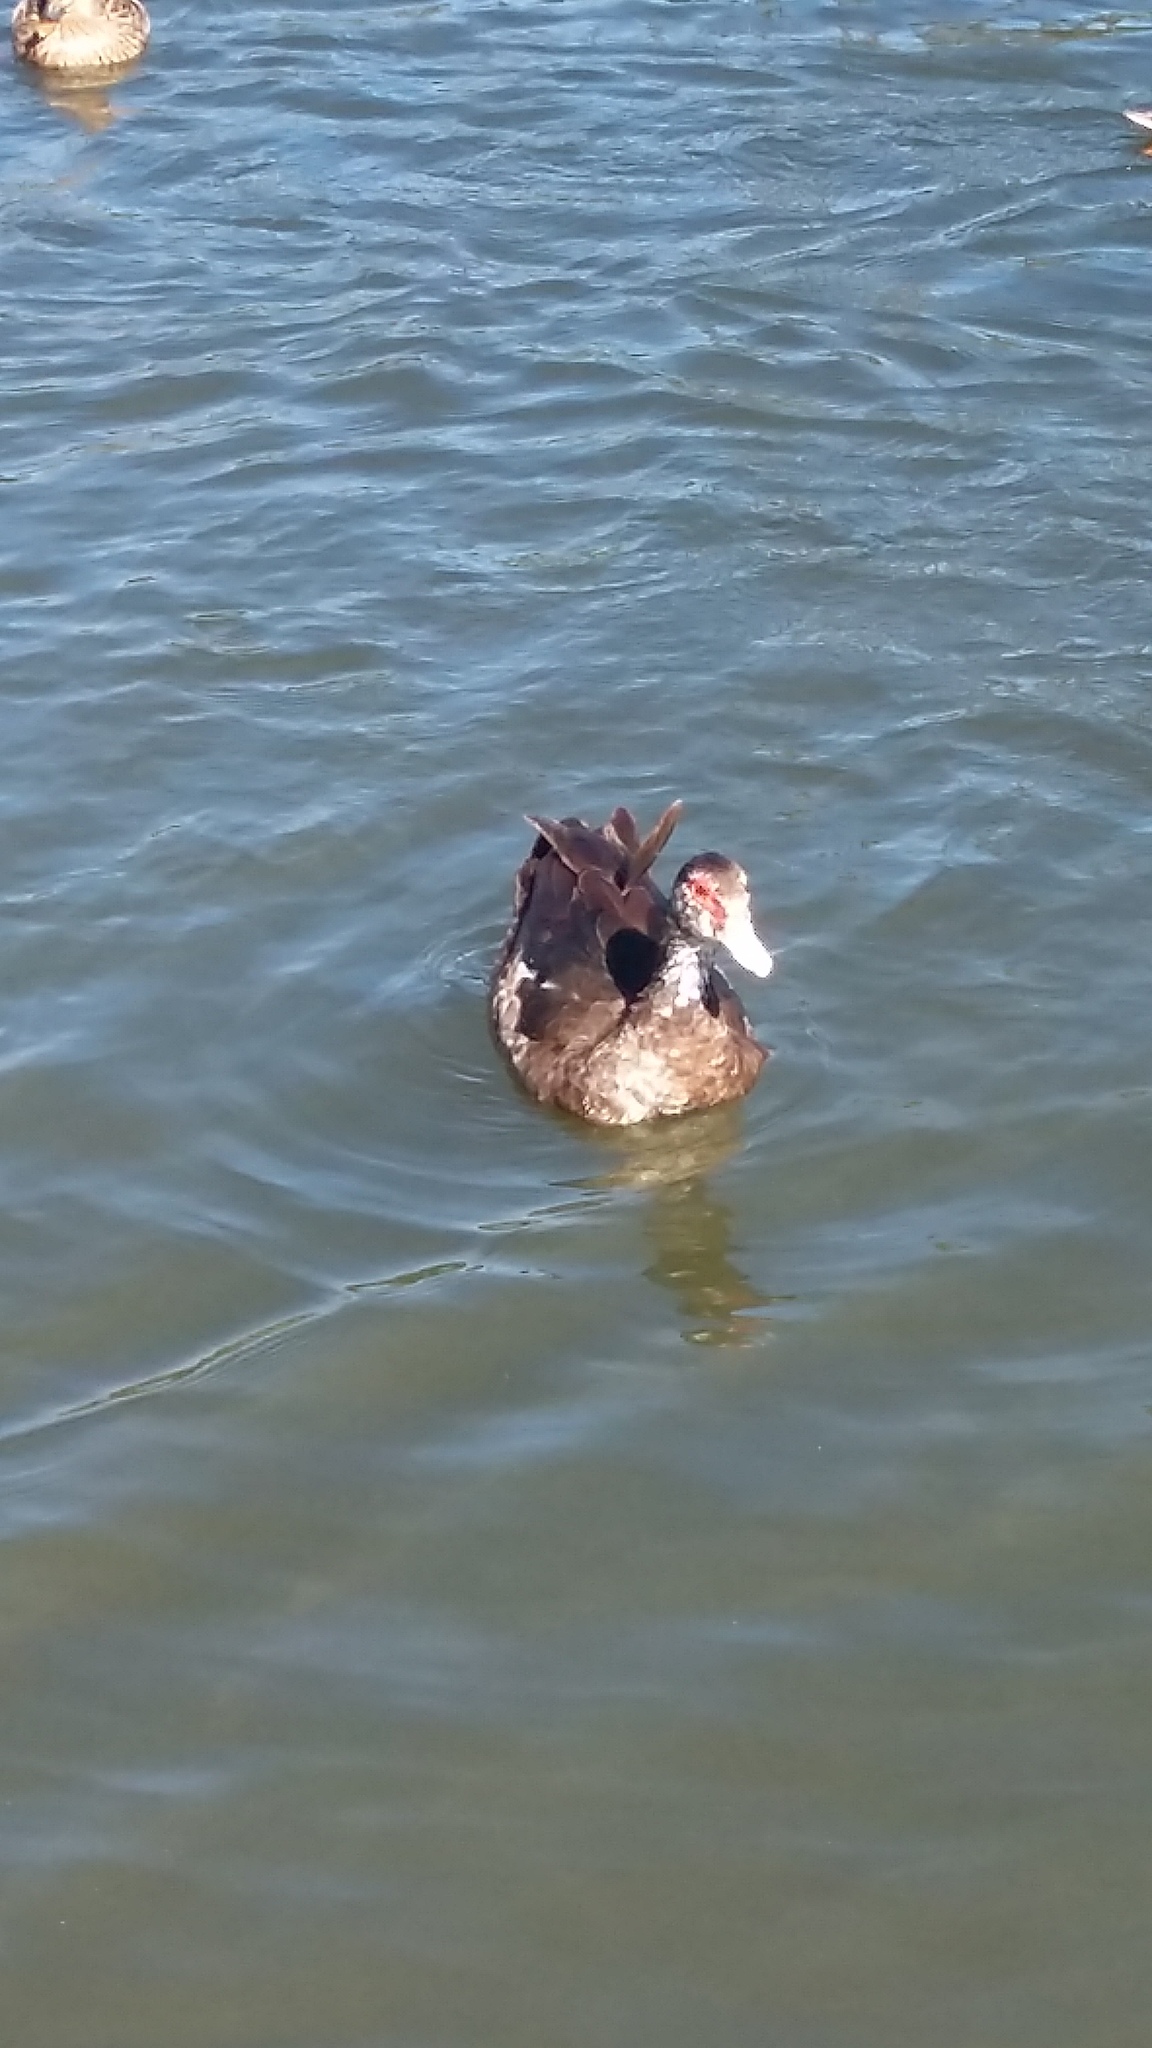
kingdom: Animalia
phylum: Chordata
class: Aves
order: Anseriformes
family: Anatidae
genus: Cairina
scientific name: Cairina moschata
